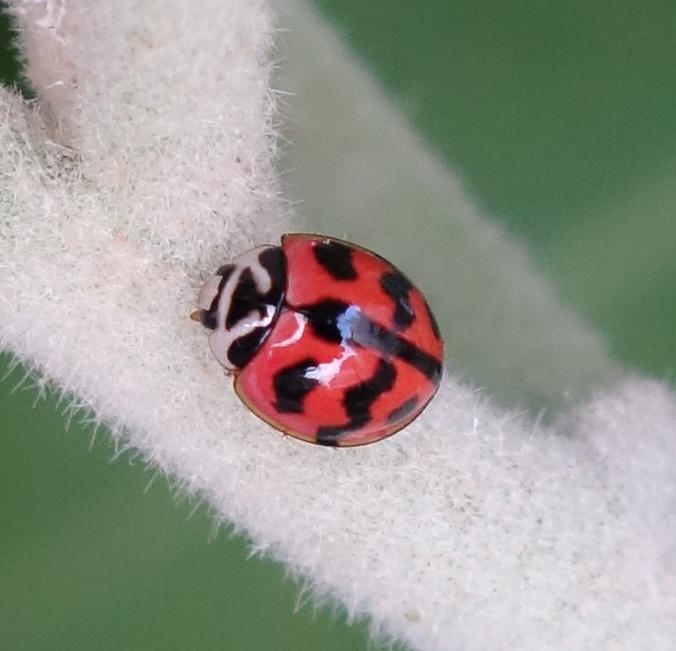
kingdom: Animalia
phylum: Arthropoda
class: Insecta
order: Coleoptera
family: Coccinellidae
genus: Cheilomenes
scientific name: Cheilomenes sexmaculata
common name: Ladybird beetle
